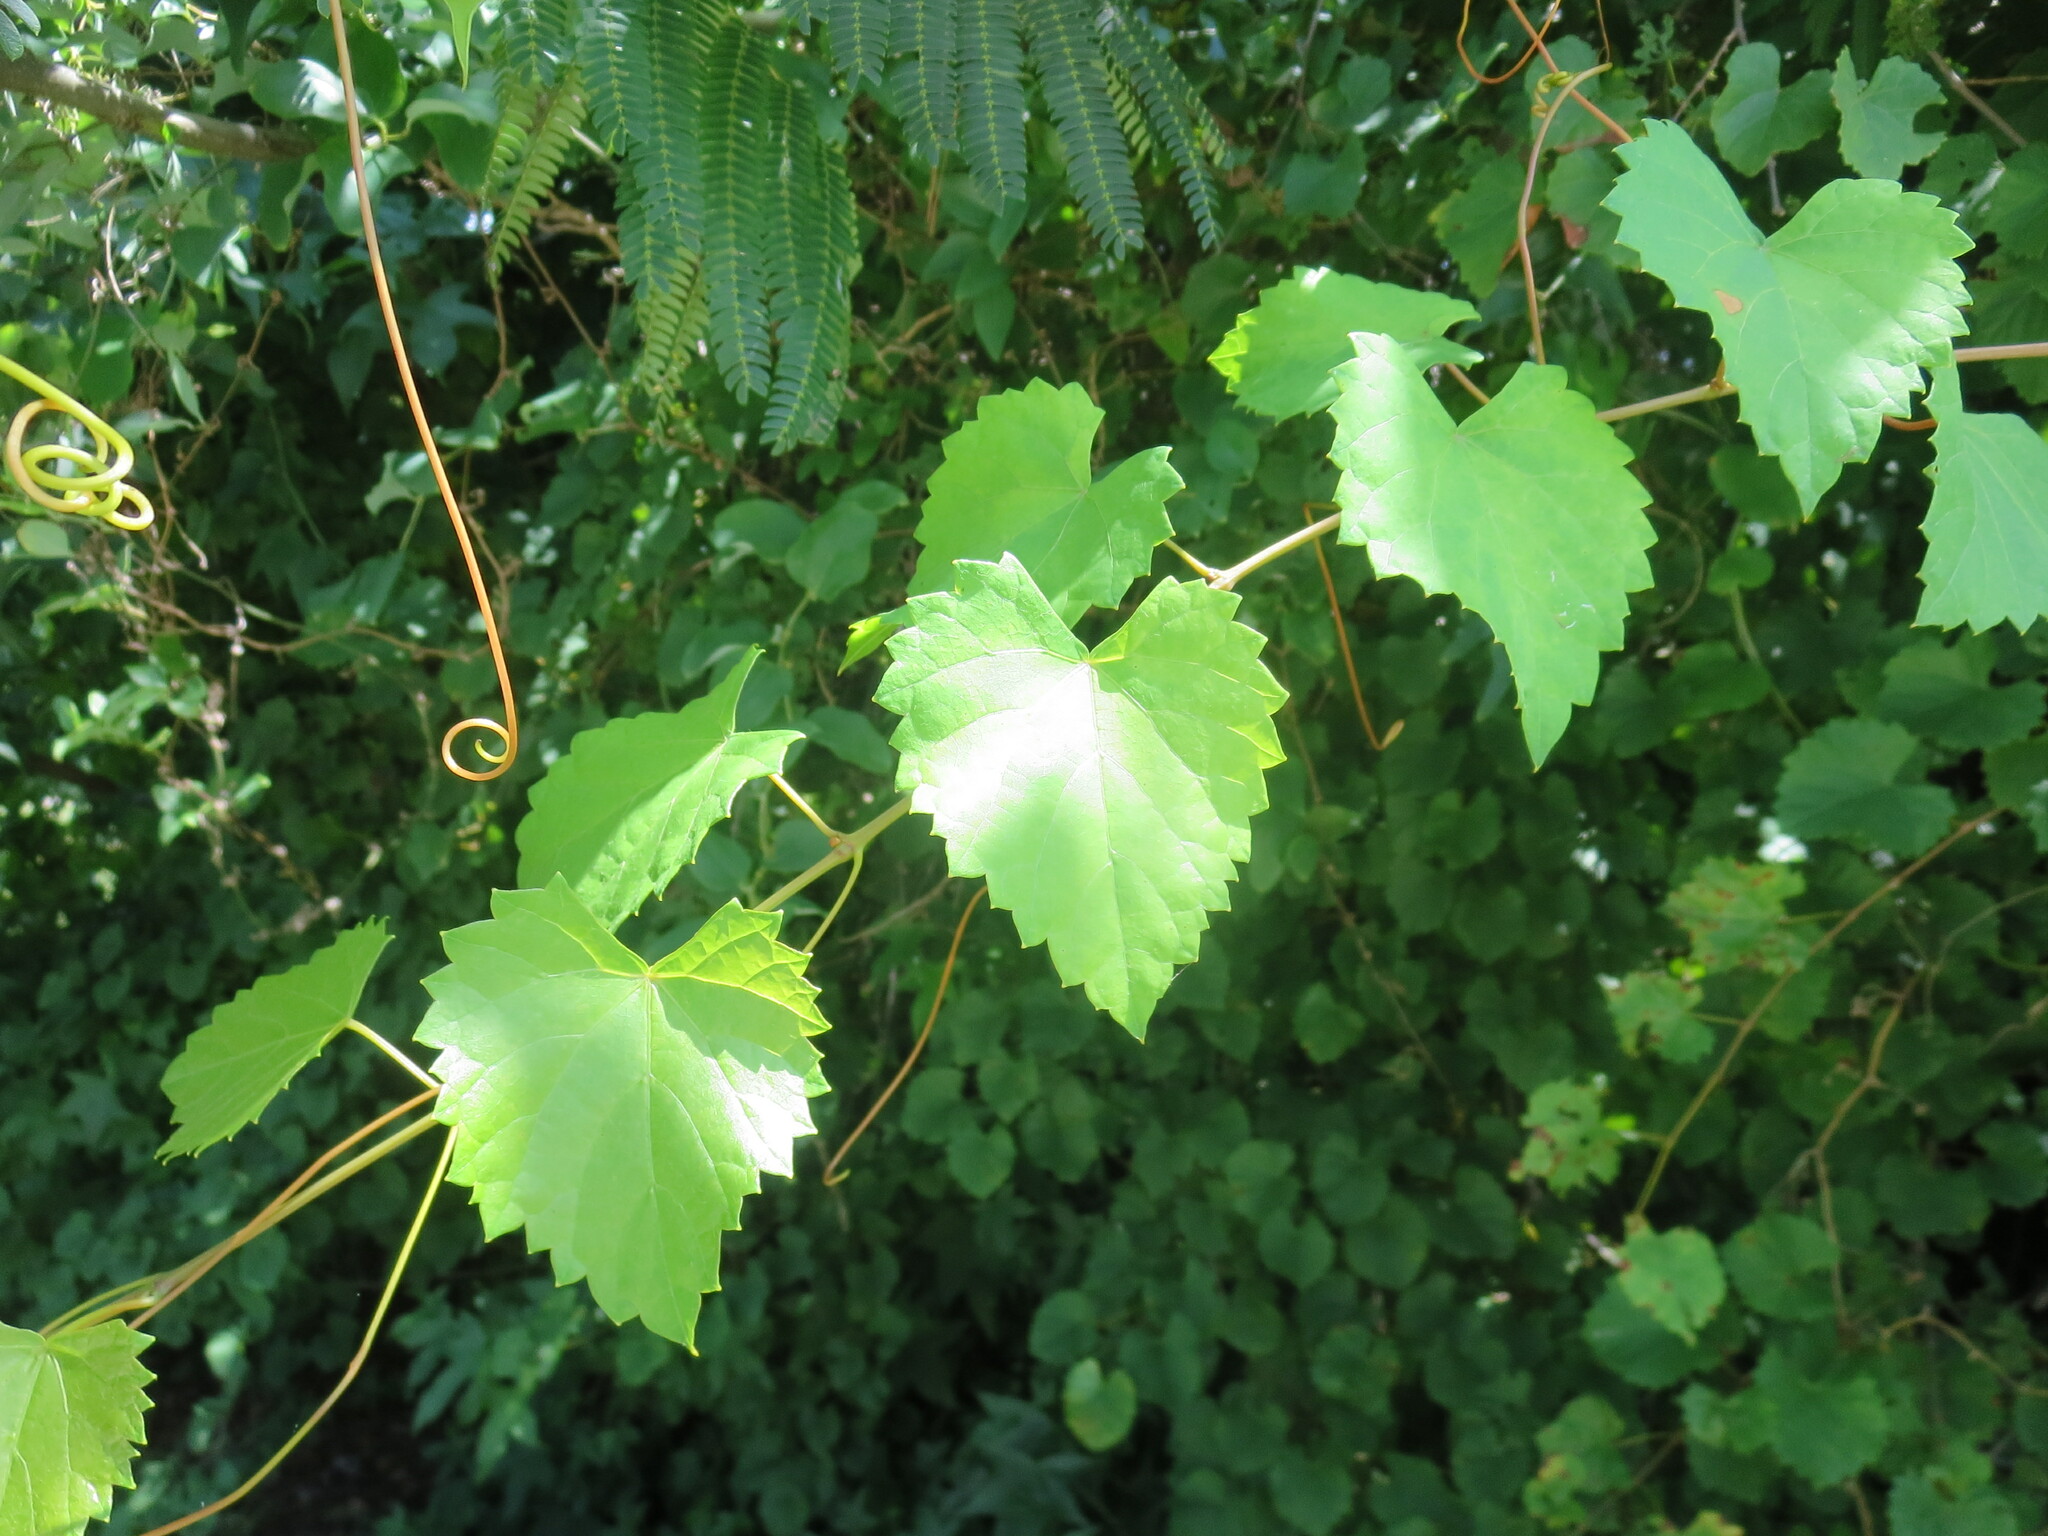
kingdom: Plantae
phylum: Tracheophyta
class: Magnoliopsida
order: Vitales
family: Vitaceae
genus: Vitis
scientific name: Vitis rotundifolia
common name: Muscadine grape
